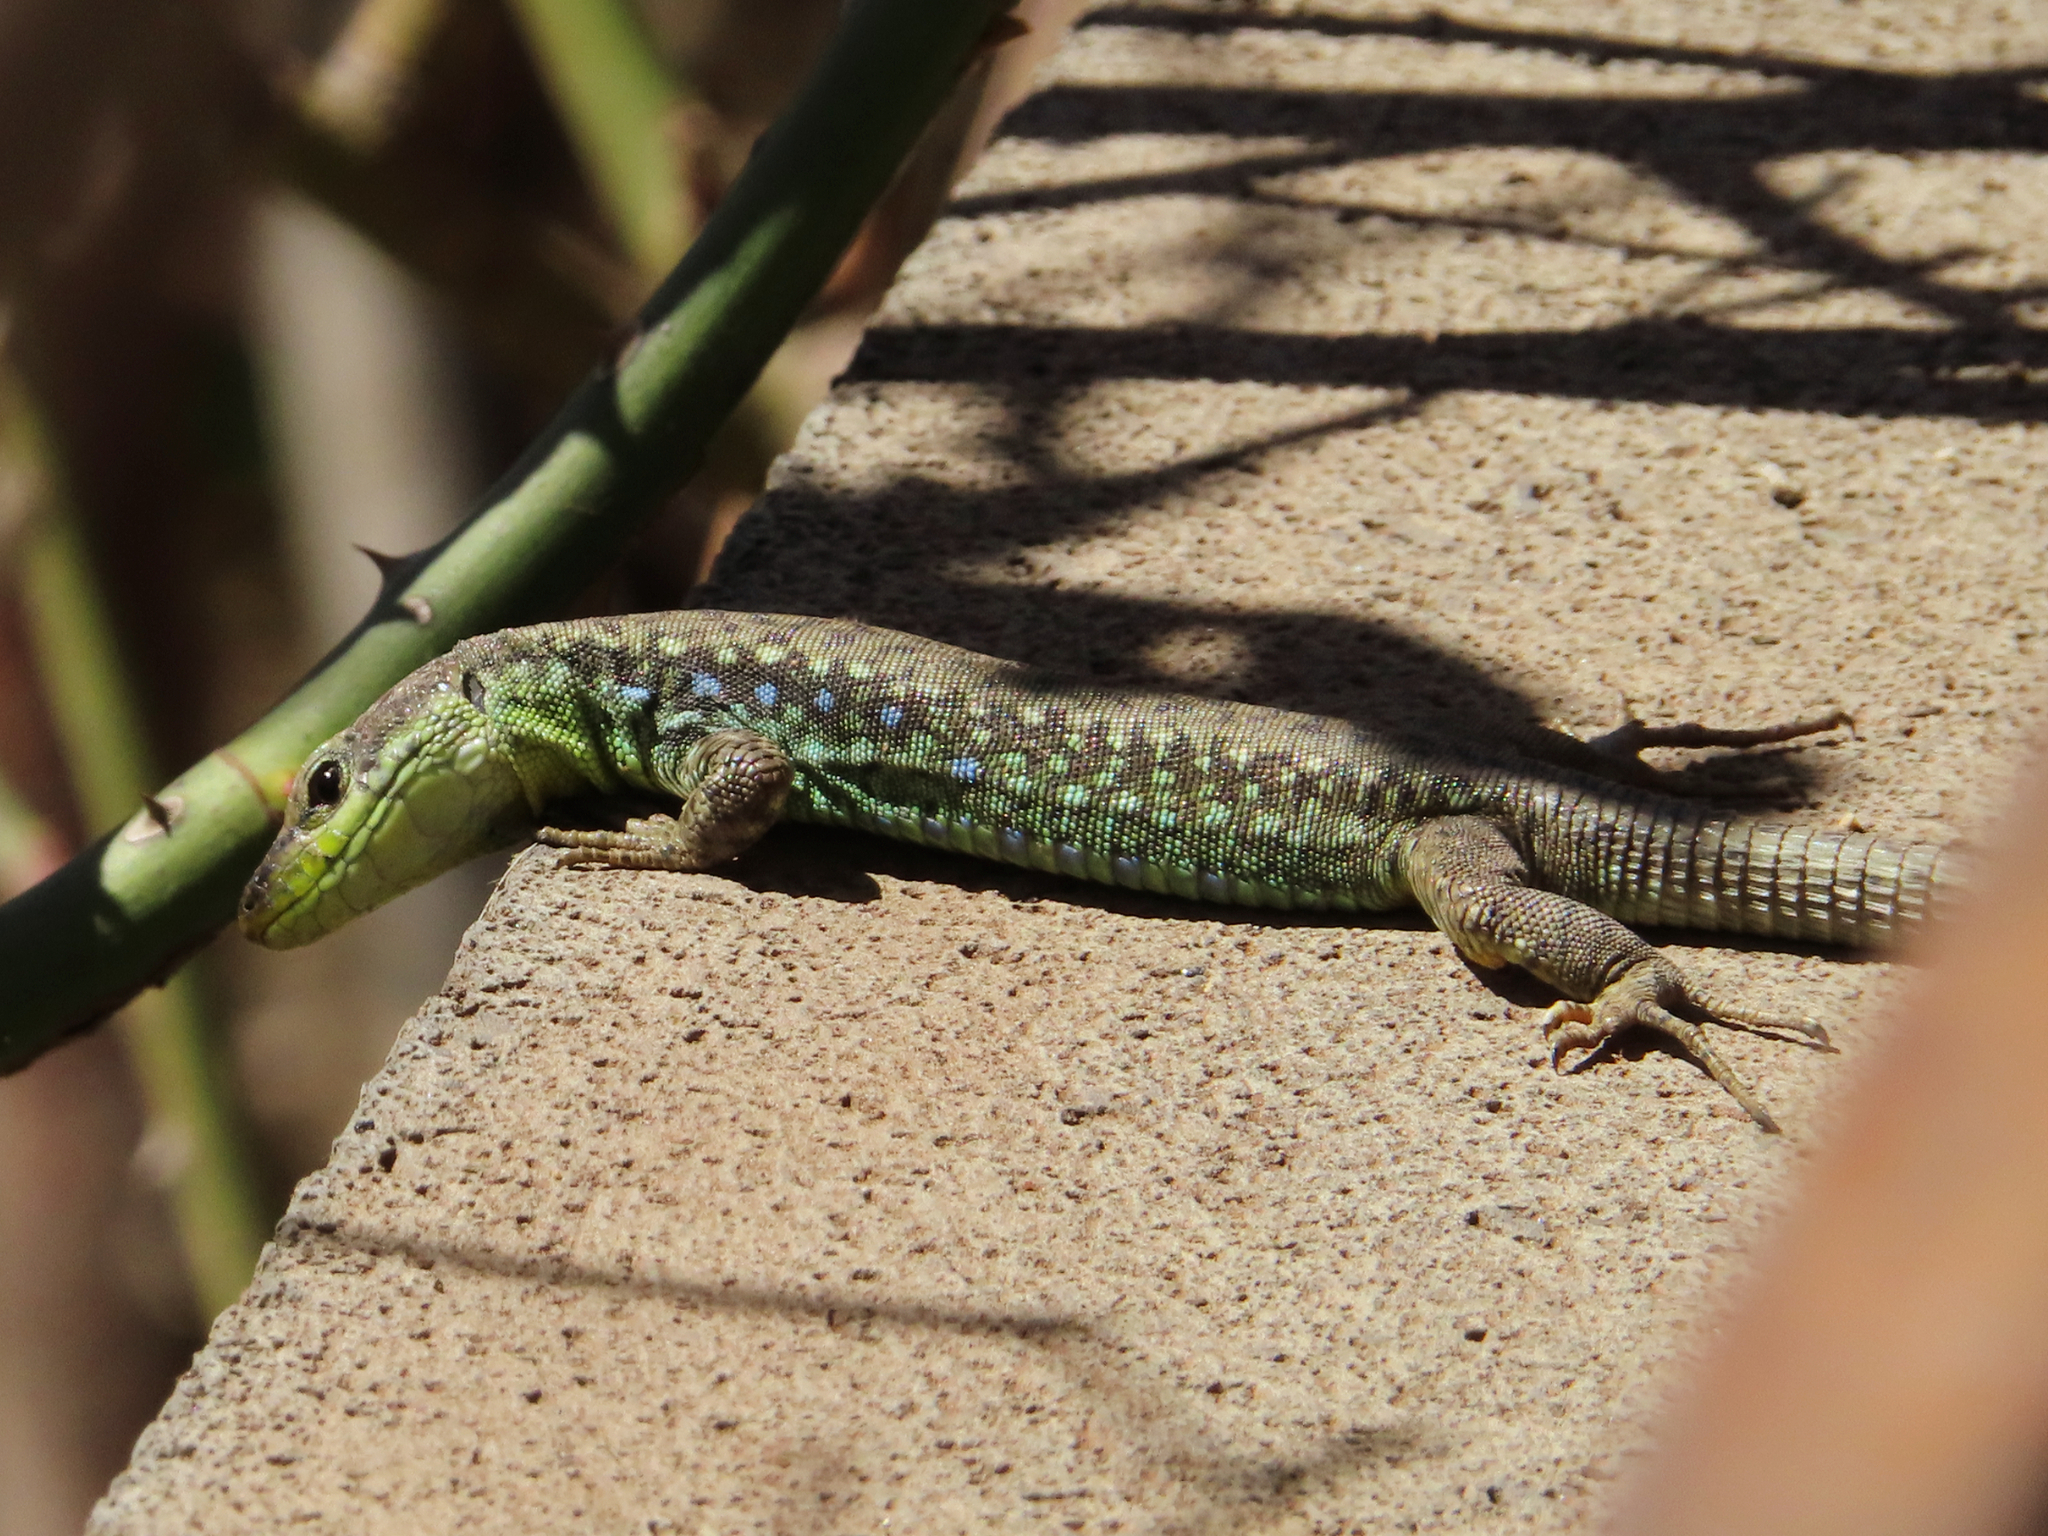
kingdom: Animalia
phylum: Chordata
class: Squamata
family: Lacertidae
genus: Darevskia
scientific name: Darevskia raddei
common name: Radde's lizard
